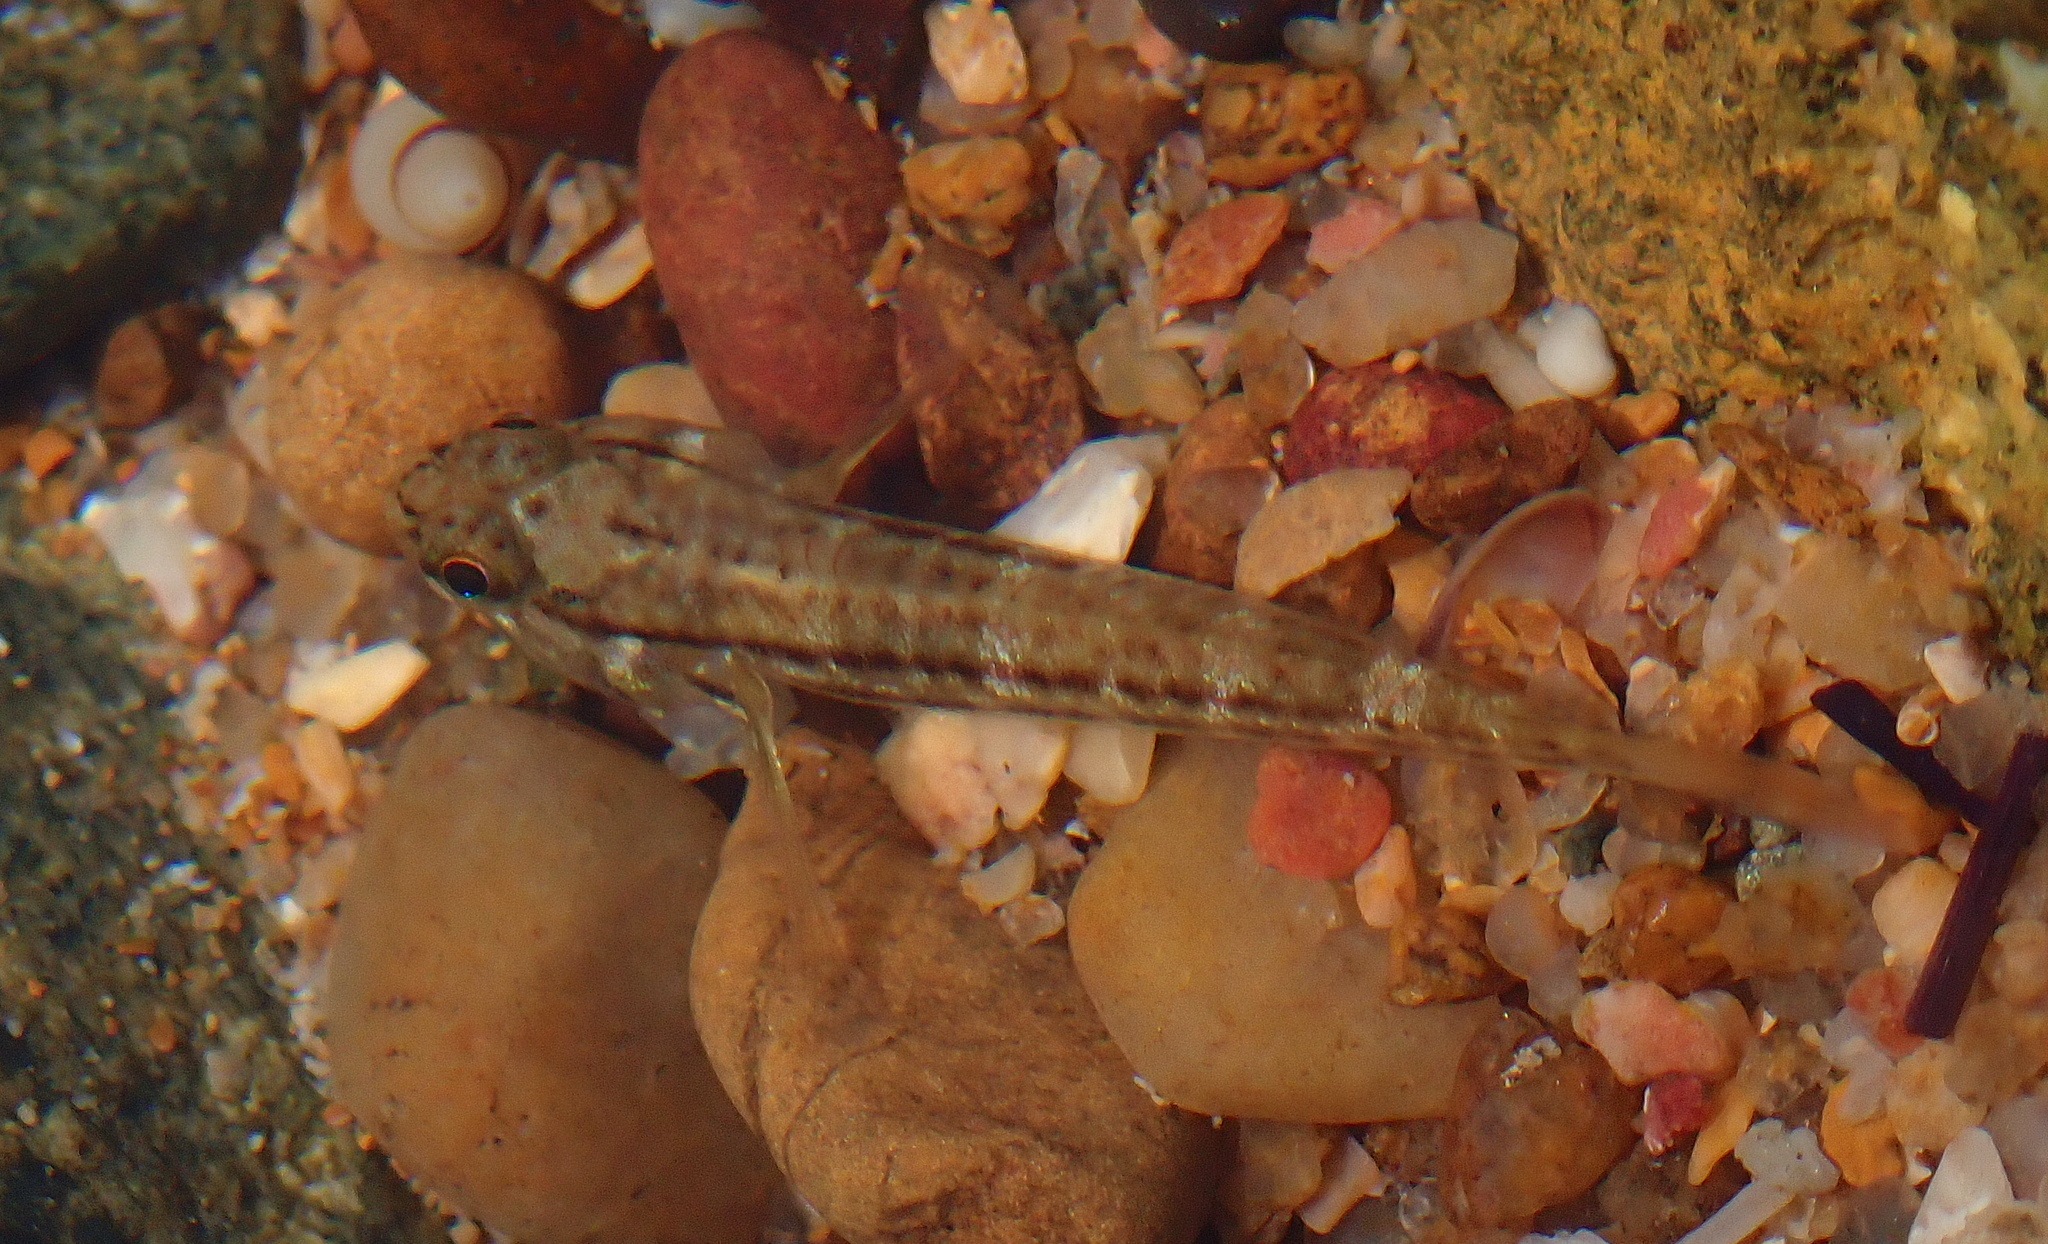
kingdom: Animalia
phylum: Chordata
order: Perciformes
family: Gobiidae
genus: Bathygobius
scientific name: Bathygobius casamancus
